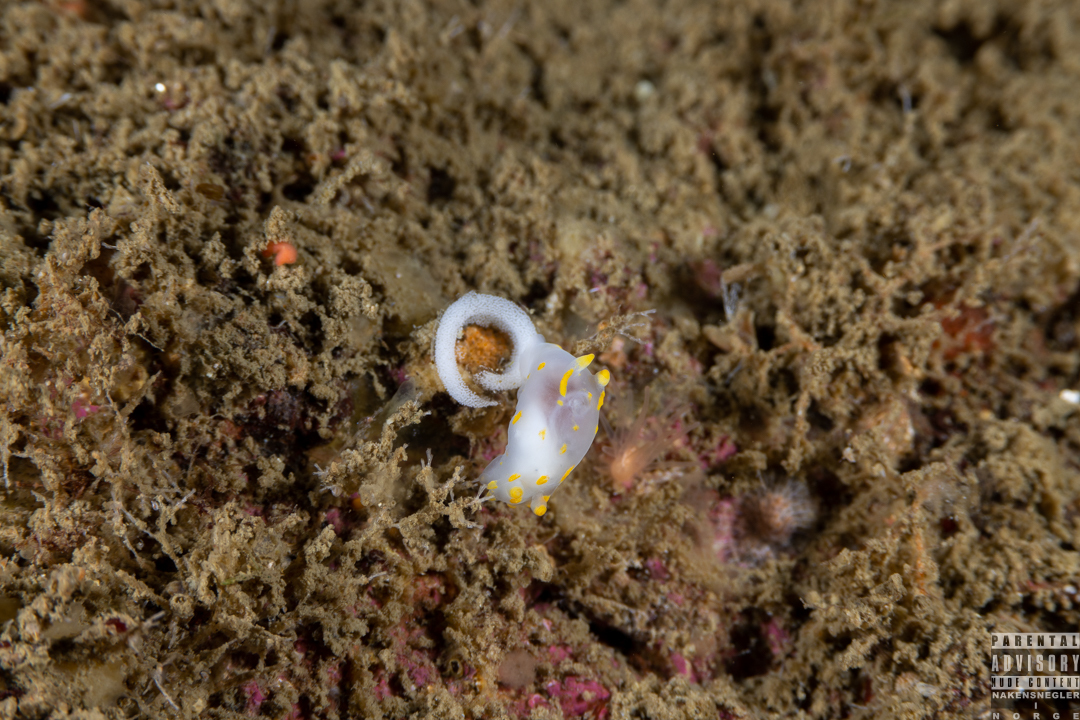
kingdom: Animalia
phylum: Mollusca
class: Gastropoda
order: Nudibranchia
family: Polyceridae
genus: Polycera
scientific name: Polycera quadrilineata
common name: Four-striped polycera
